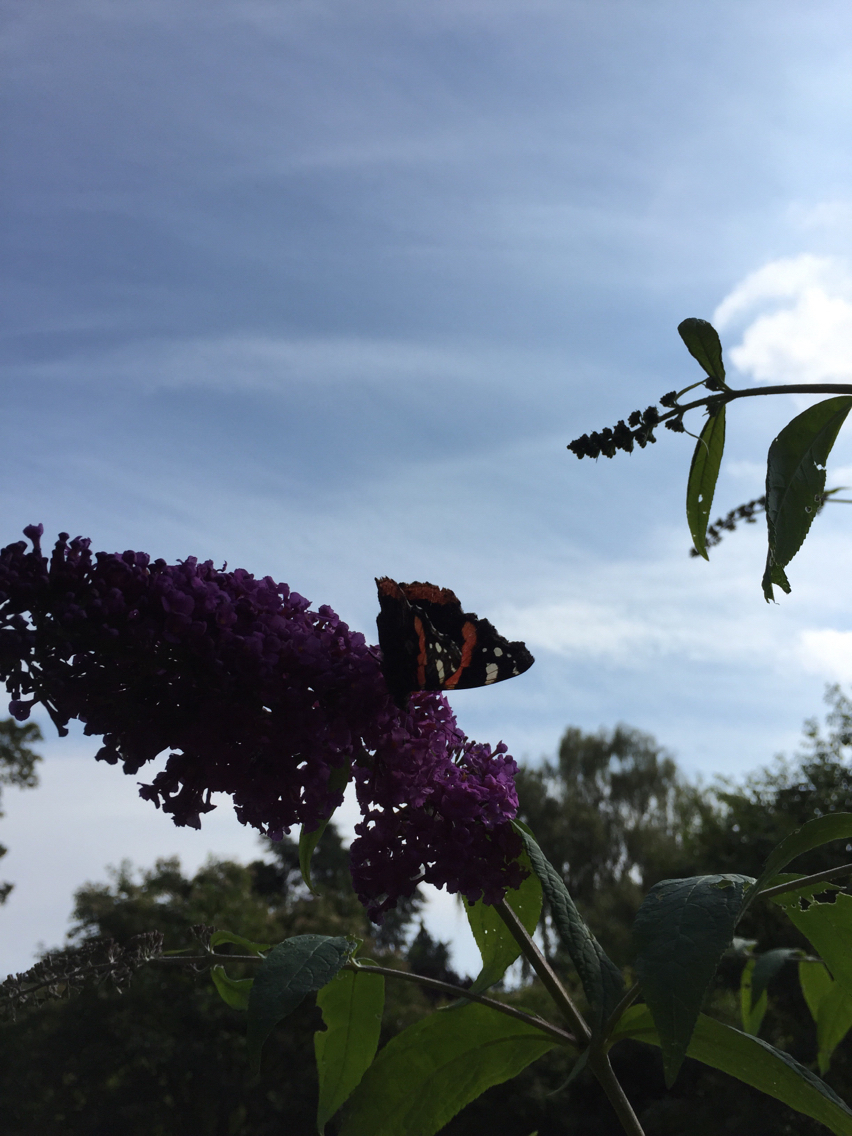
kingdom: Animalia
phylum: Arthropoda
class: Insecta
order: Lepidoptera
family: Nymphalidae
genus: Vanessa
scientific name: Vanessa atalanta
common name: Red admiral
